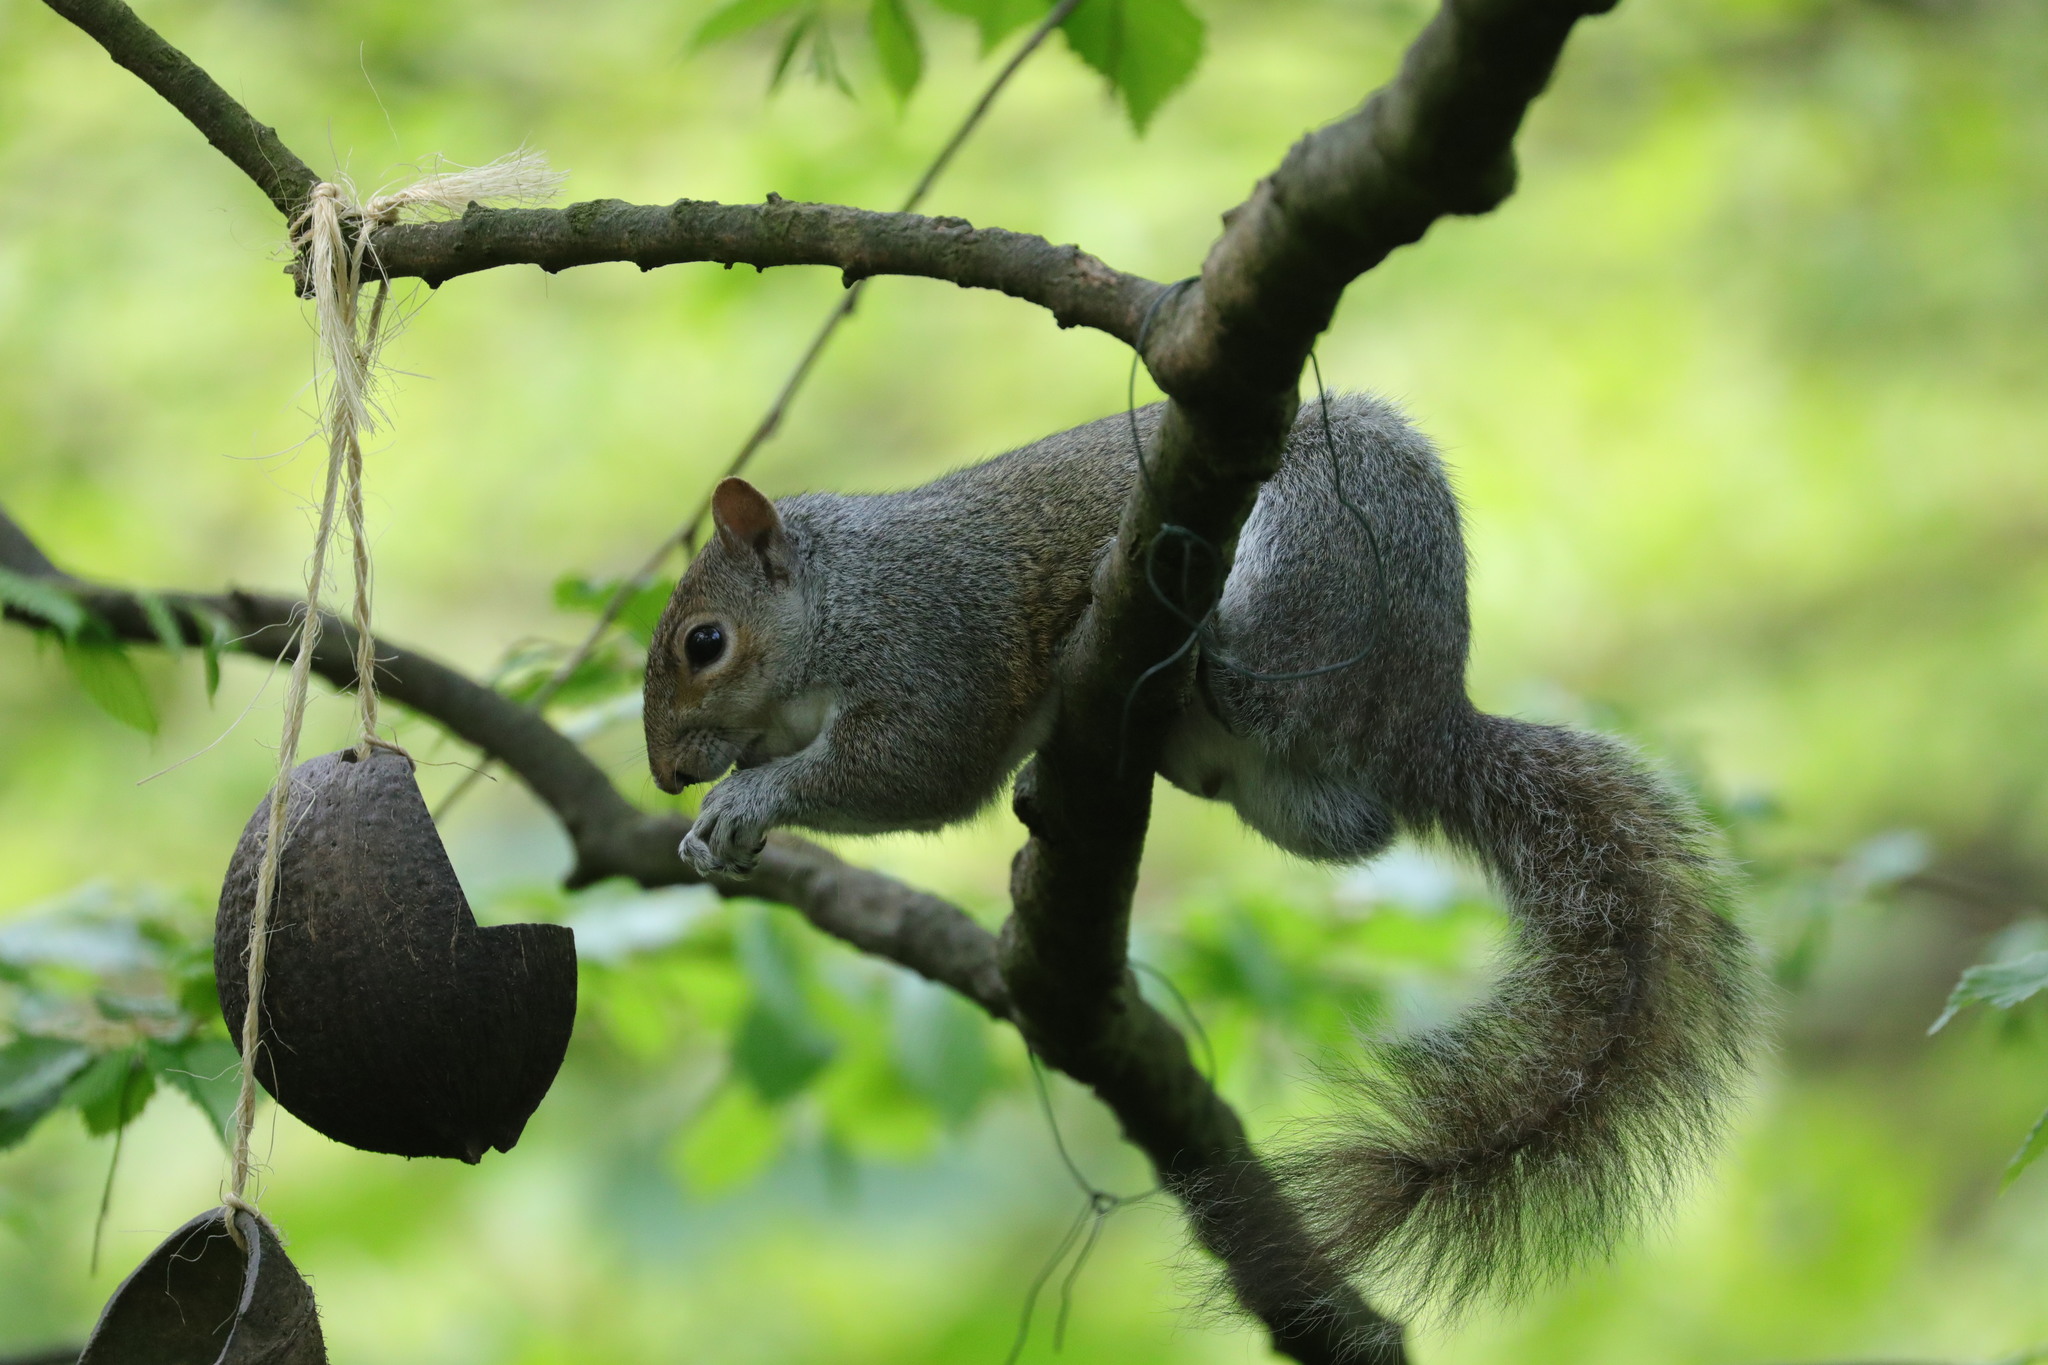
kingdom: Animalia
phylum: Chordata
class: Mammalia
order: Rodentia
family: Sciuridae
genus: Sciurus
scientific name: Sciurus carolinensis
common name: Eastern gray squirrel
